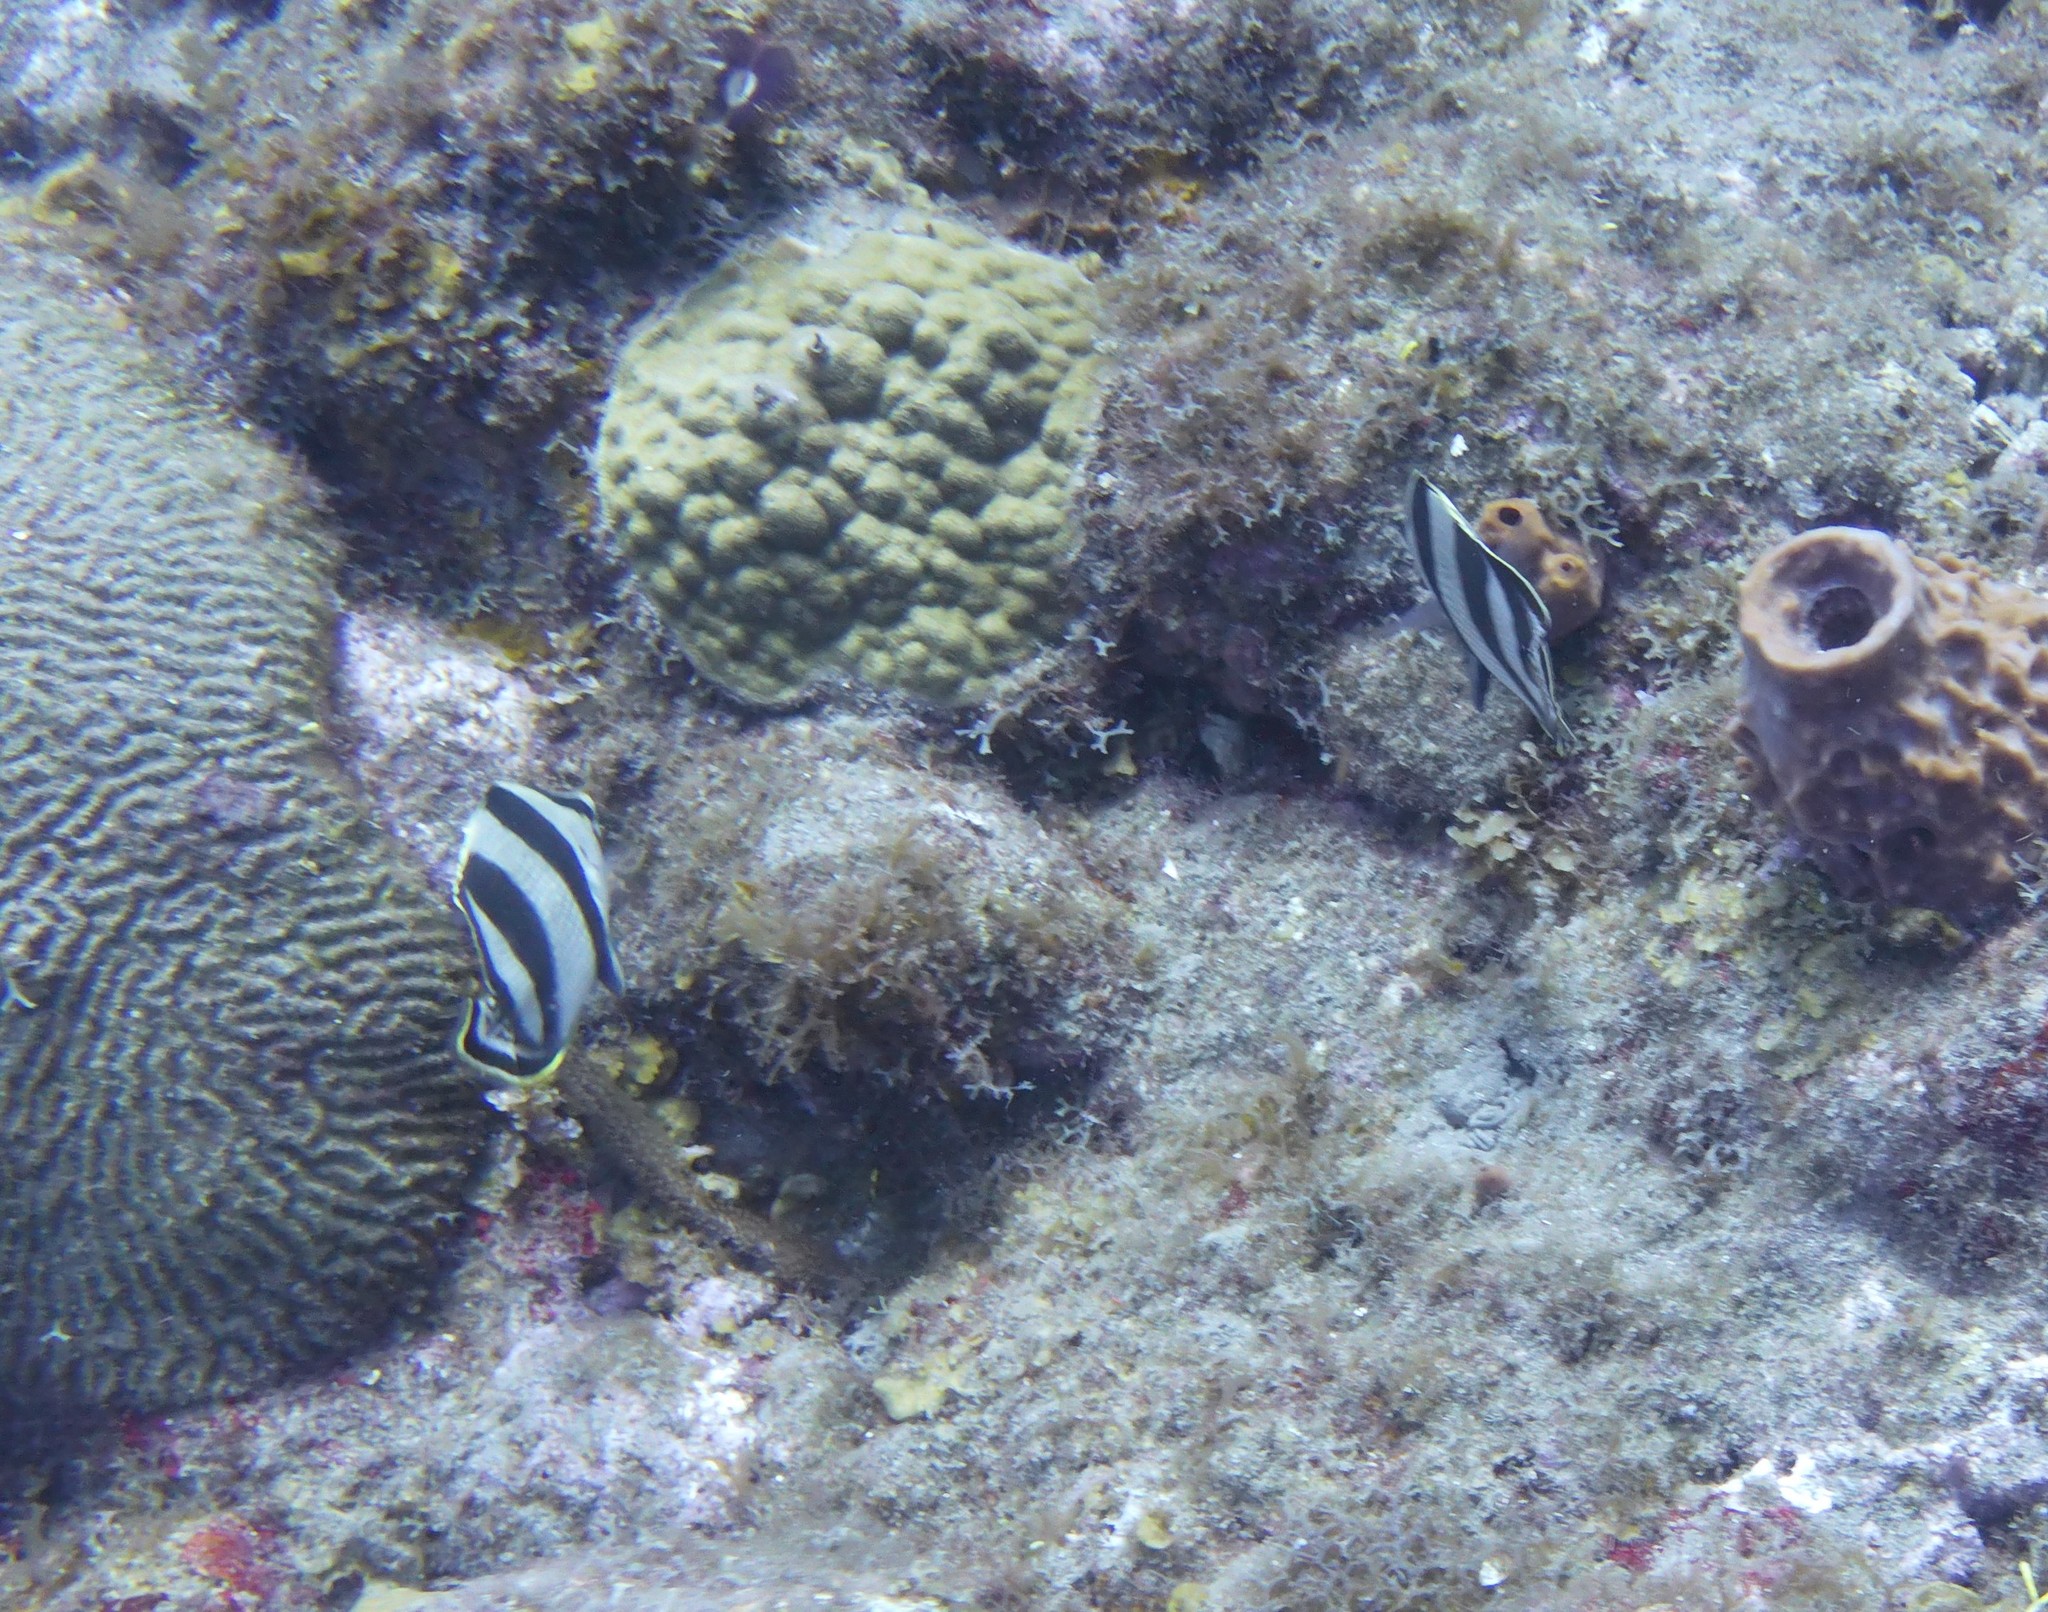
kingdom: Animalia
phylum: Chordata
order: Perciformes
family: Chaetodontidae
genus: Chaetodon
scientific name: Chaetodon striatus
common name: Banded butterflyfish
